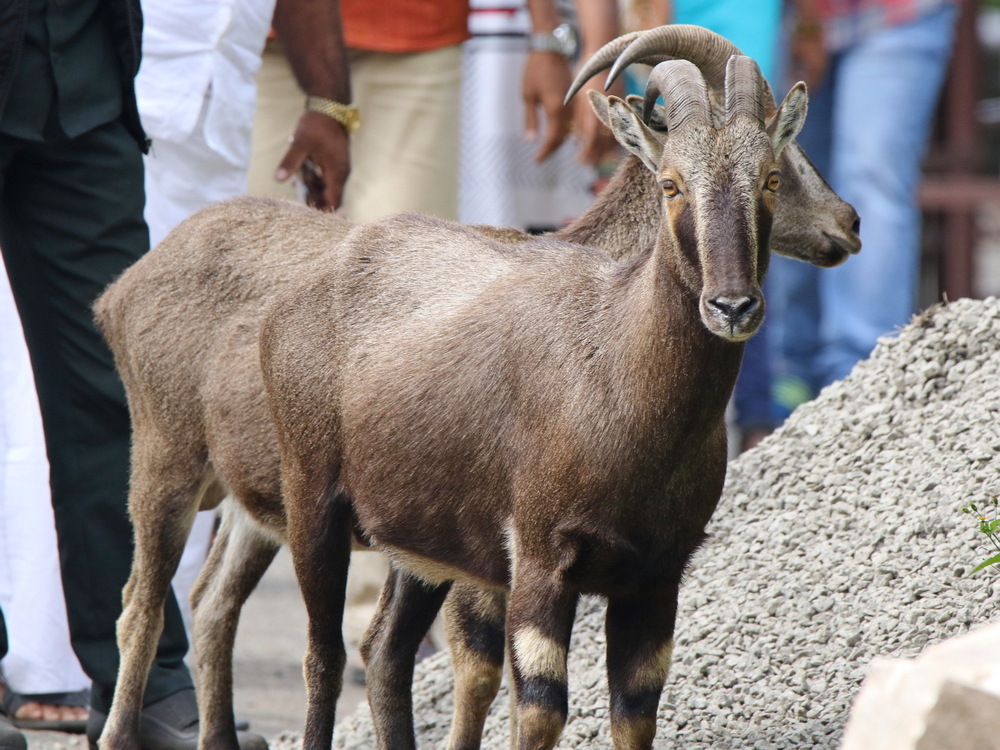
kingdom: Animalia
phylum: Chordata
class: Mammalia
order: Artiodactyla
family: Bovidae
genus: Hemitragus
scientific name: Hemitragus hylocrius
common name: Nilgiri tahr
